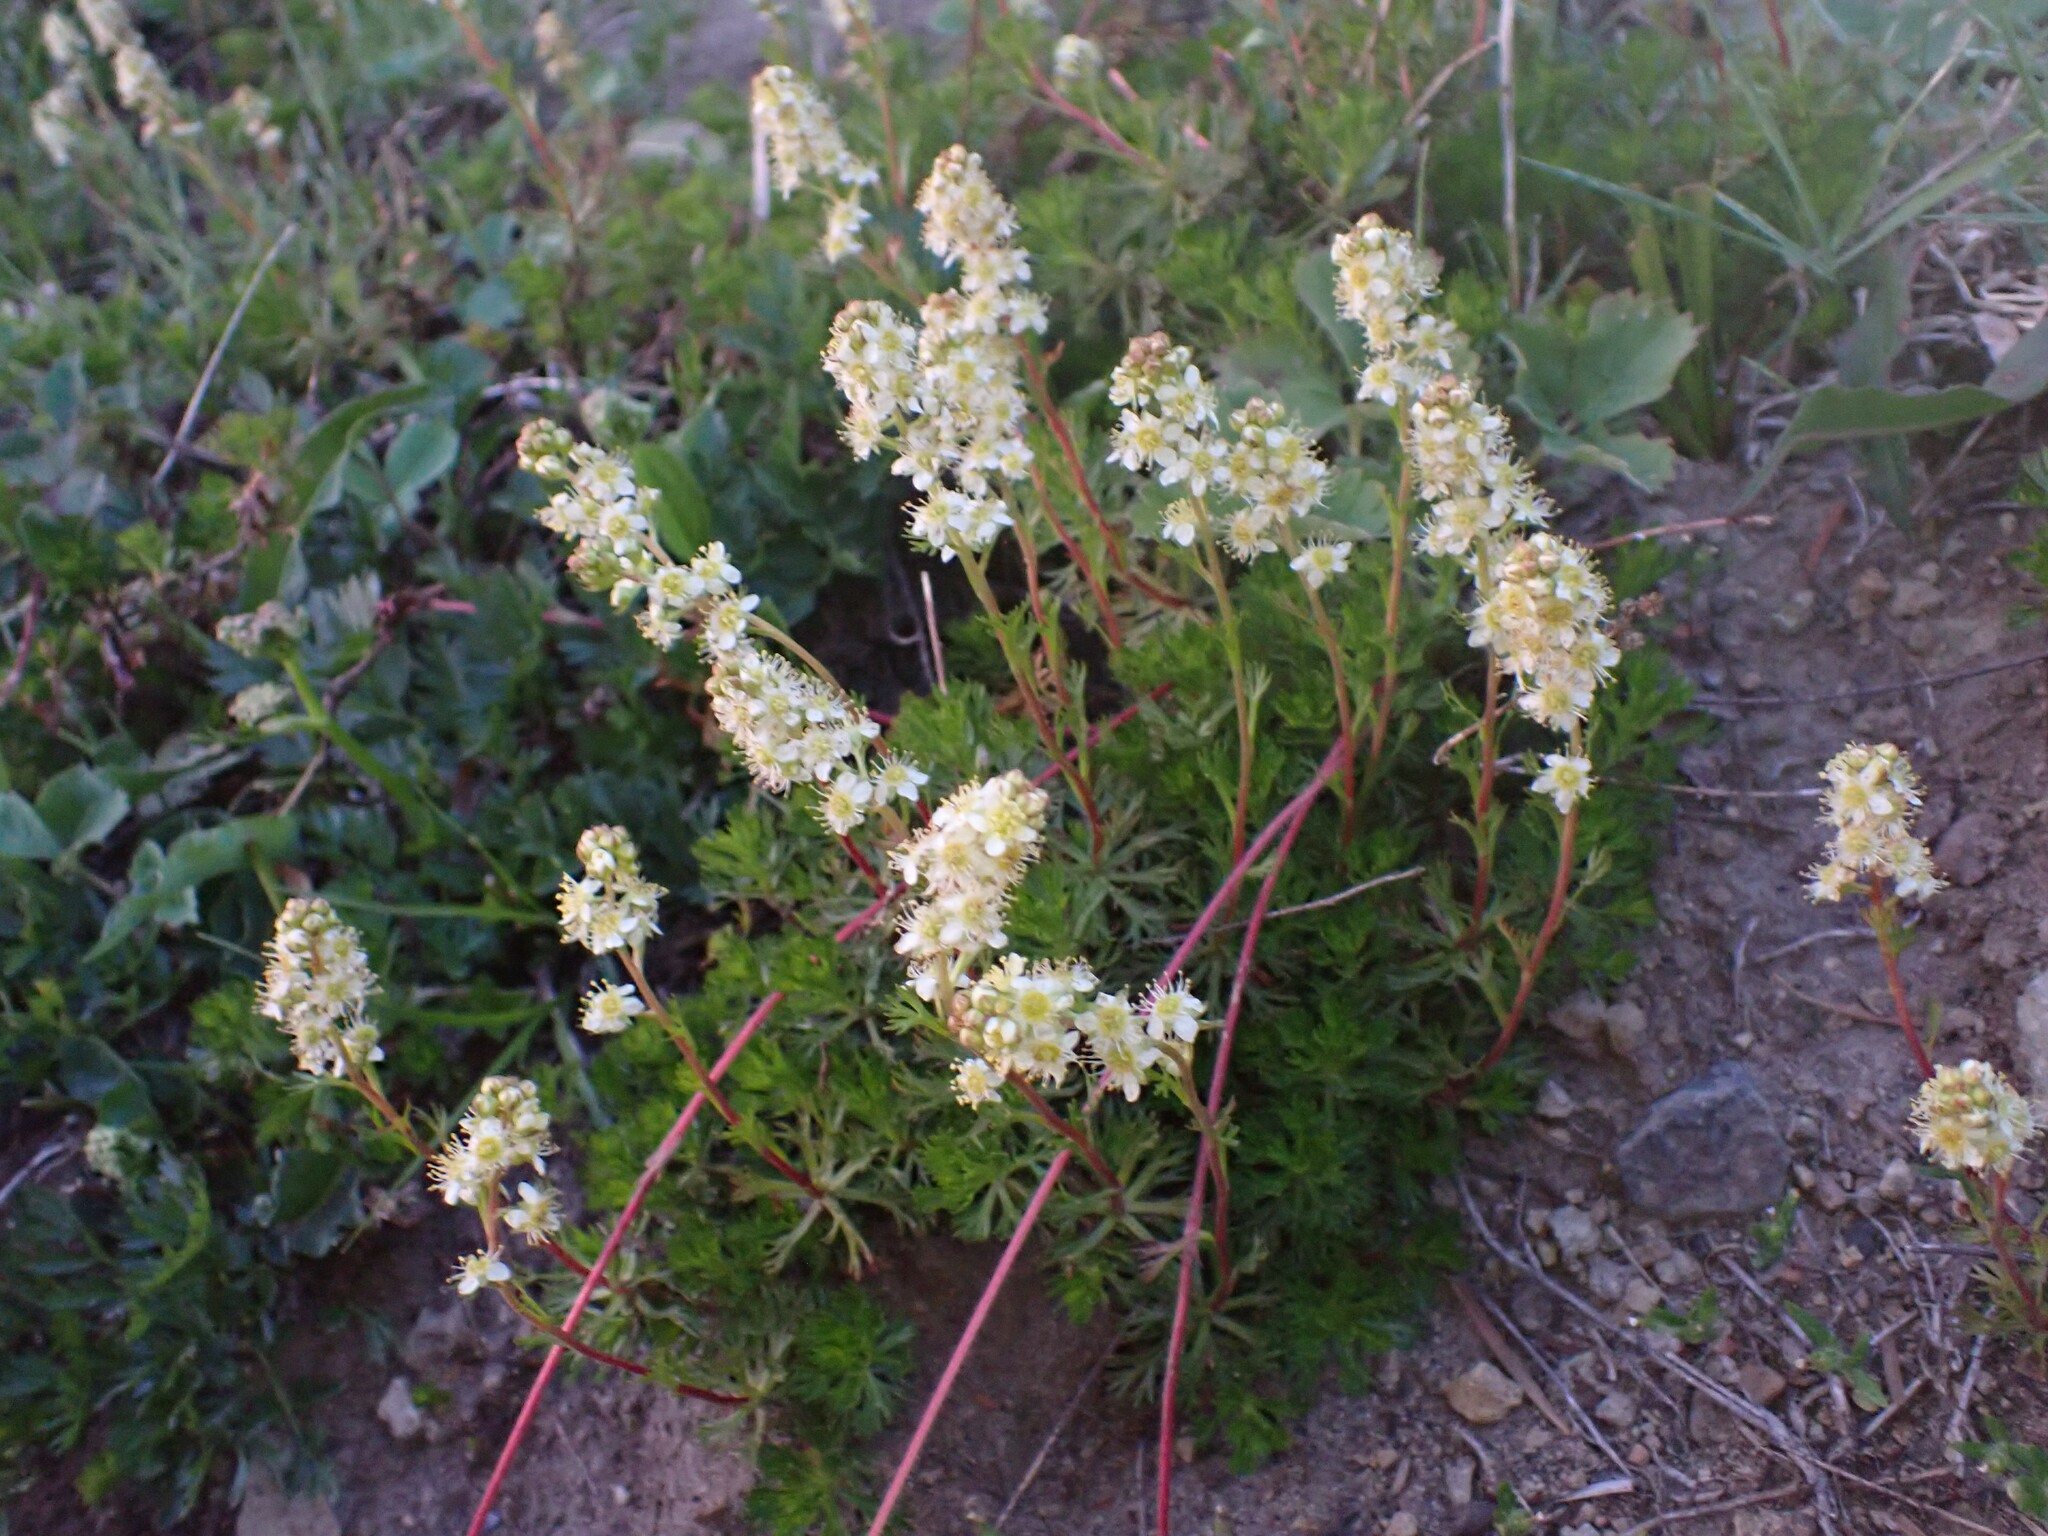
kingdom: Plantae
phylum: Tracheophyta
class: Magnoliopsida
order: Rosales
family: Rosaceae
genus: Luetkea
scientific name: Luetkea pectinata
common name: Partridgefoot
